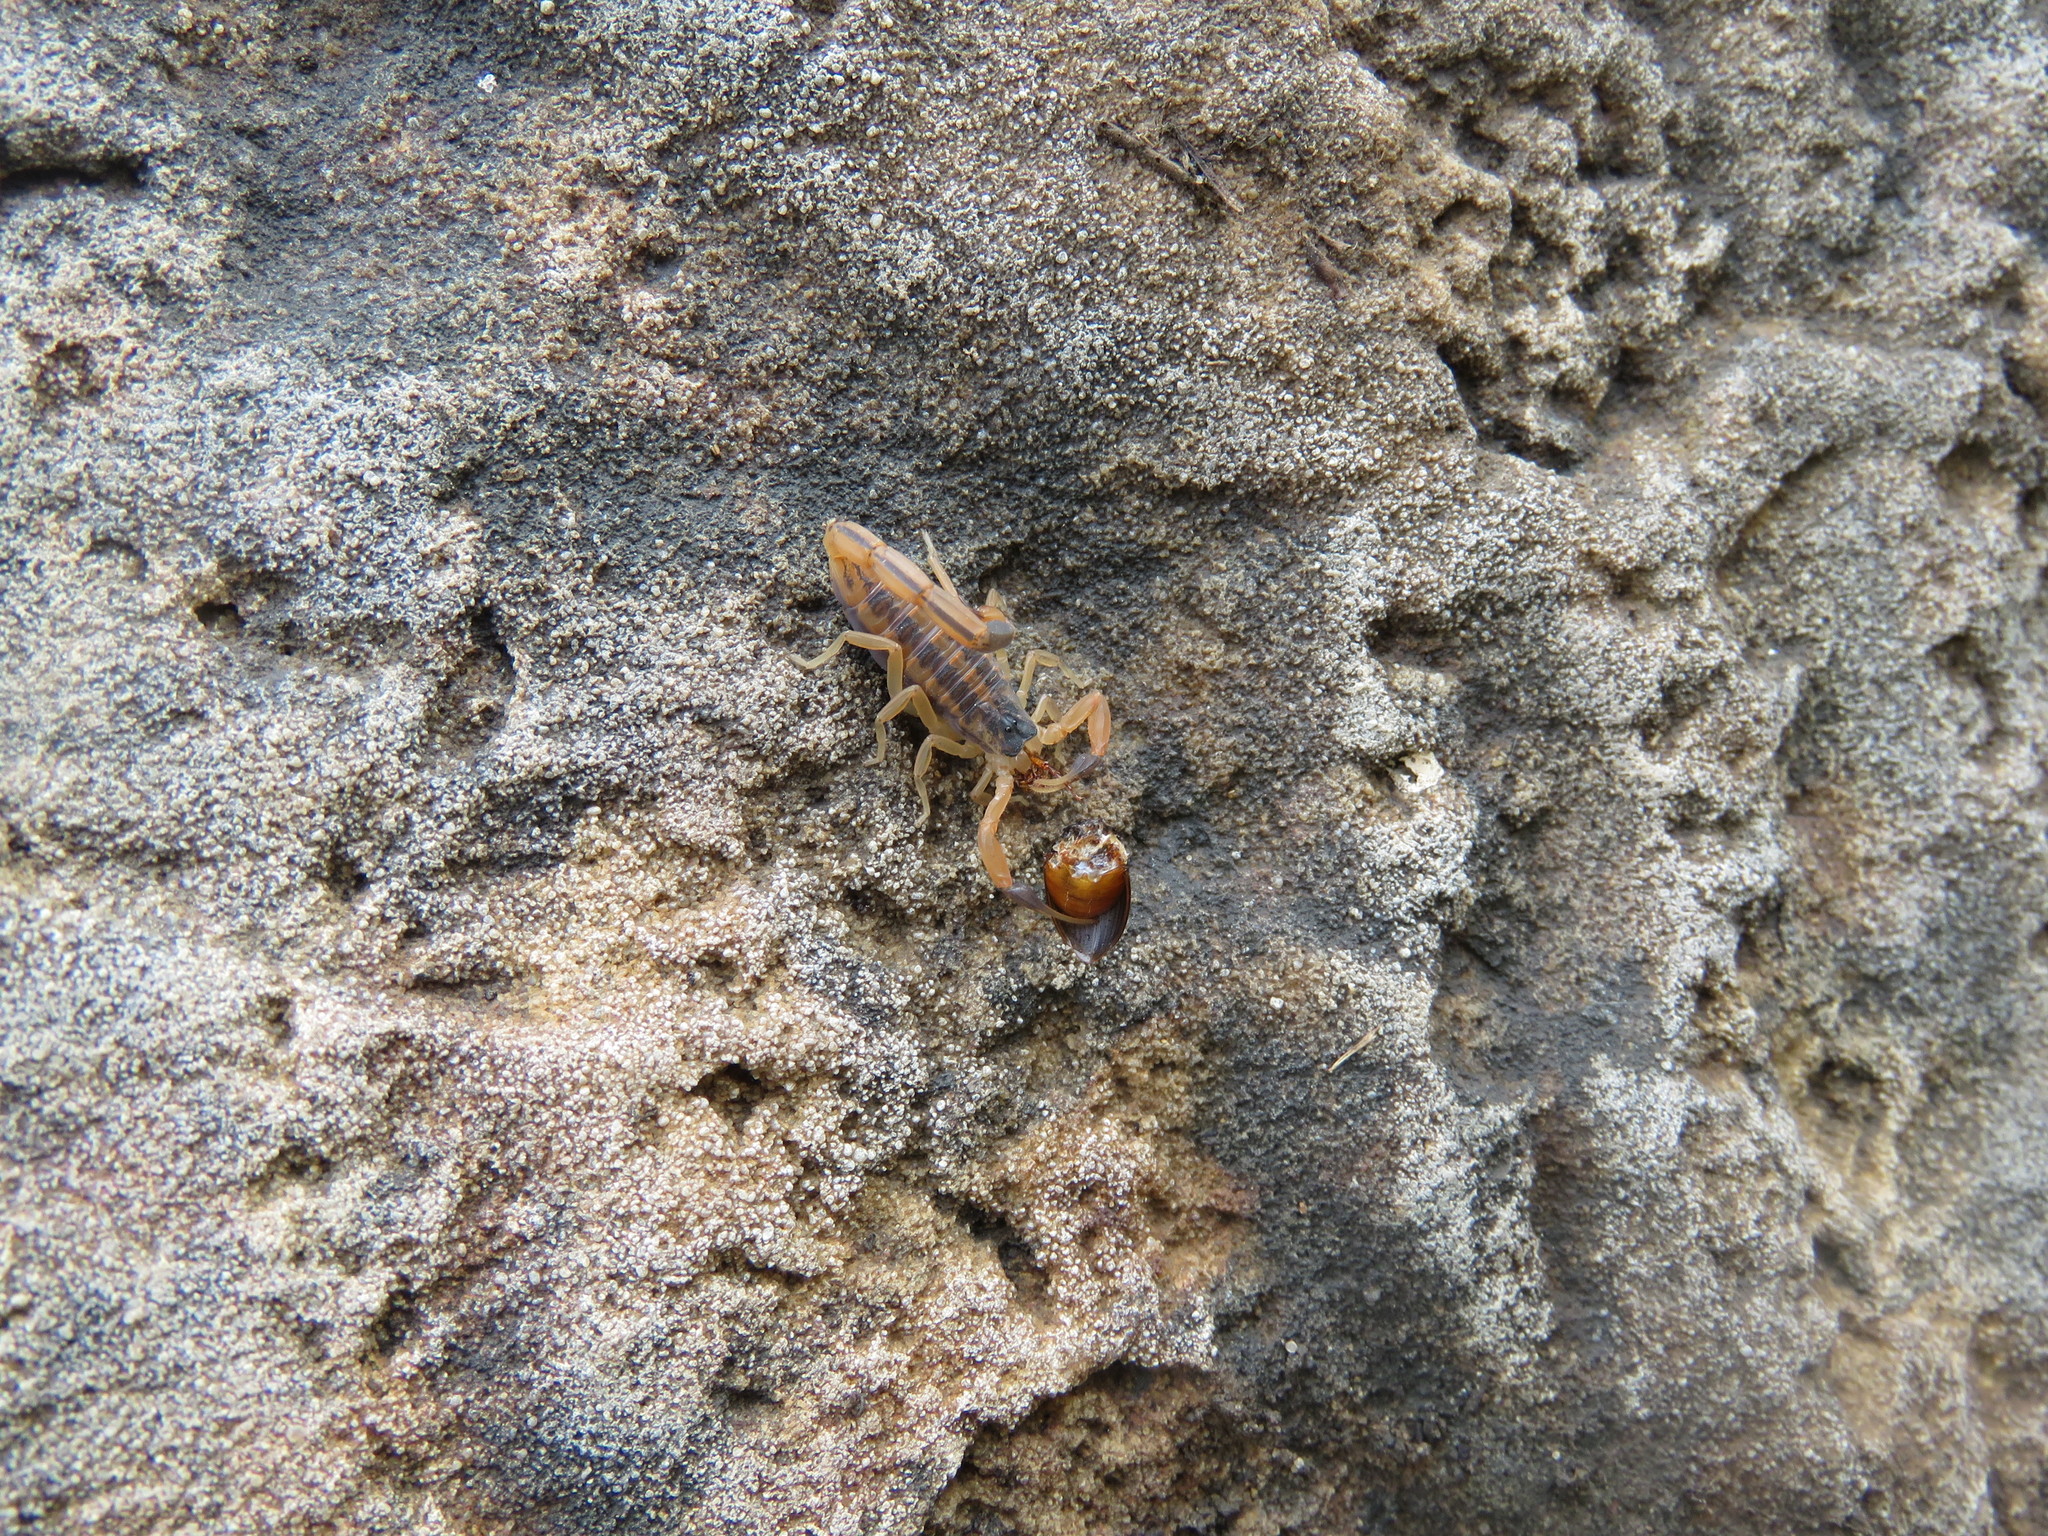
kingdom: Animalia
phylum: Arthropoda
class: Arachnida
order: Scorpiones
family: Buthidae
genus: Centruroides
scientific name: Centruroides vittatus
